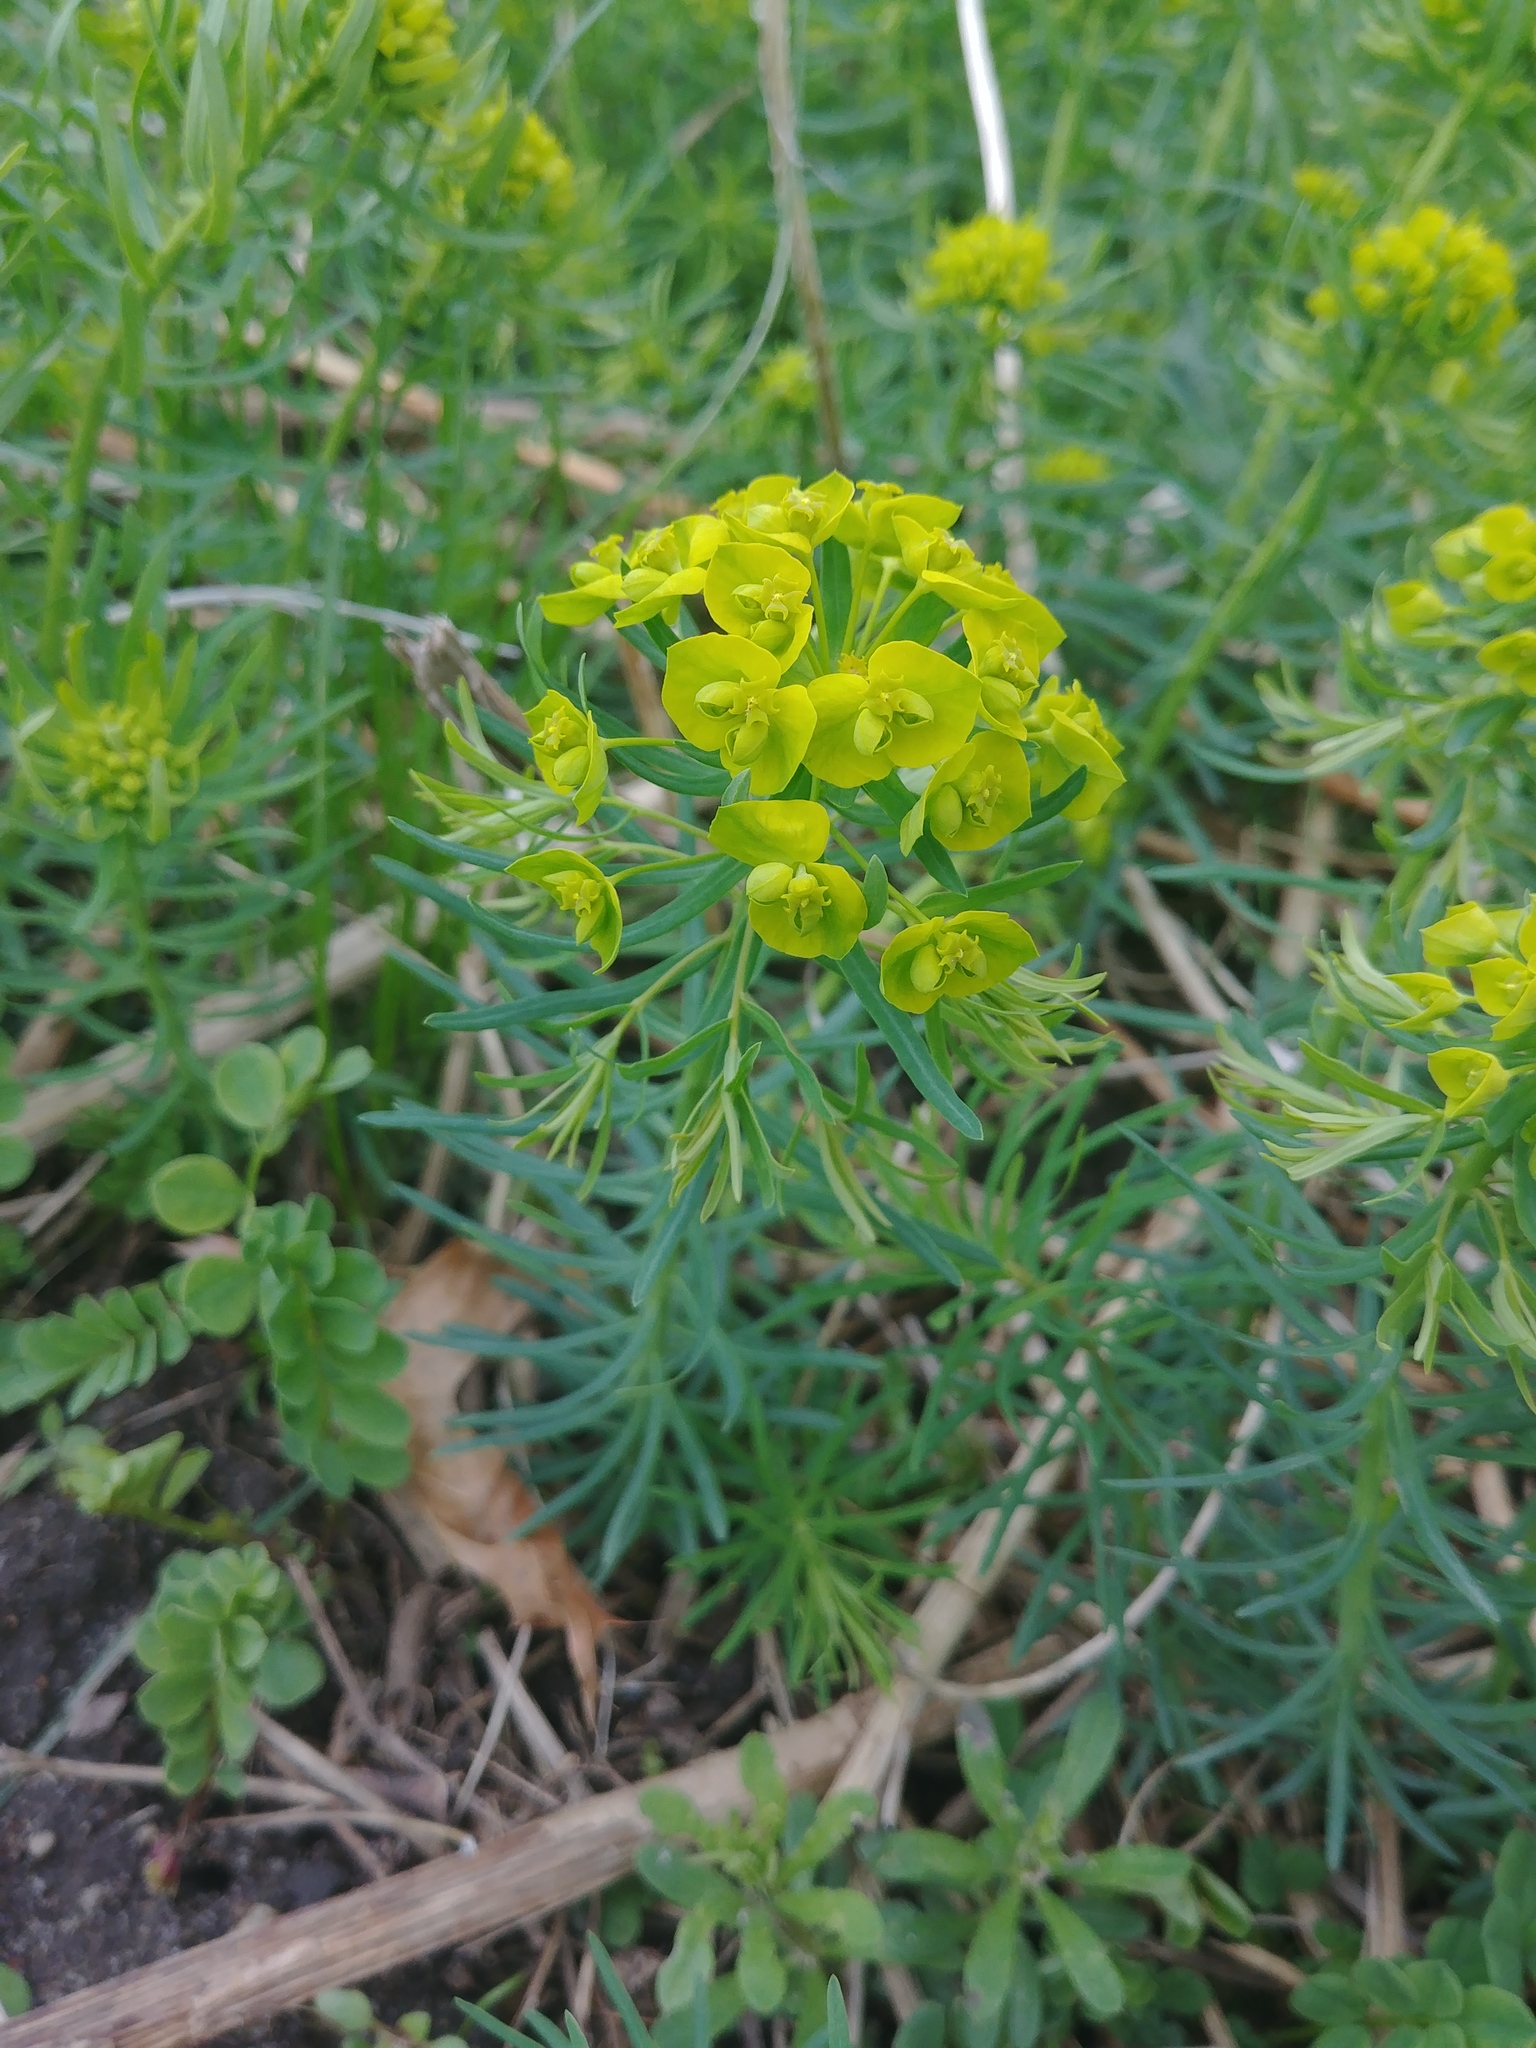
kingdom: Plantae
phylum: Tracheophyta
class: Magnoliopsida
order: Malpighiales
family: Euphorbiaceae
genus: Euphorbia
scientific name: Euphorbia cyparissias
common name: Cypress spurge
